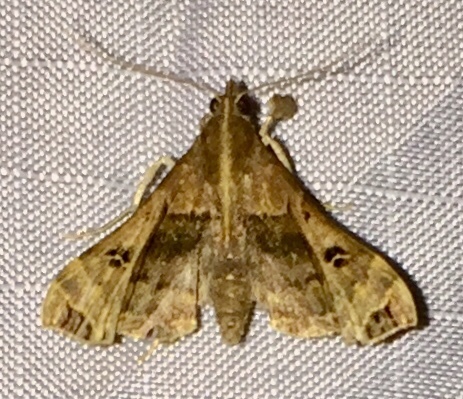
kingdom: Animalia
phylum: Arthropoda
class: Insecta
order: Lepidoptera
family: Erebidae
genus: Palthis
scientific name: Palthis asopialis
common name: Faint-spotted palthis moth
